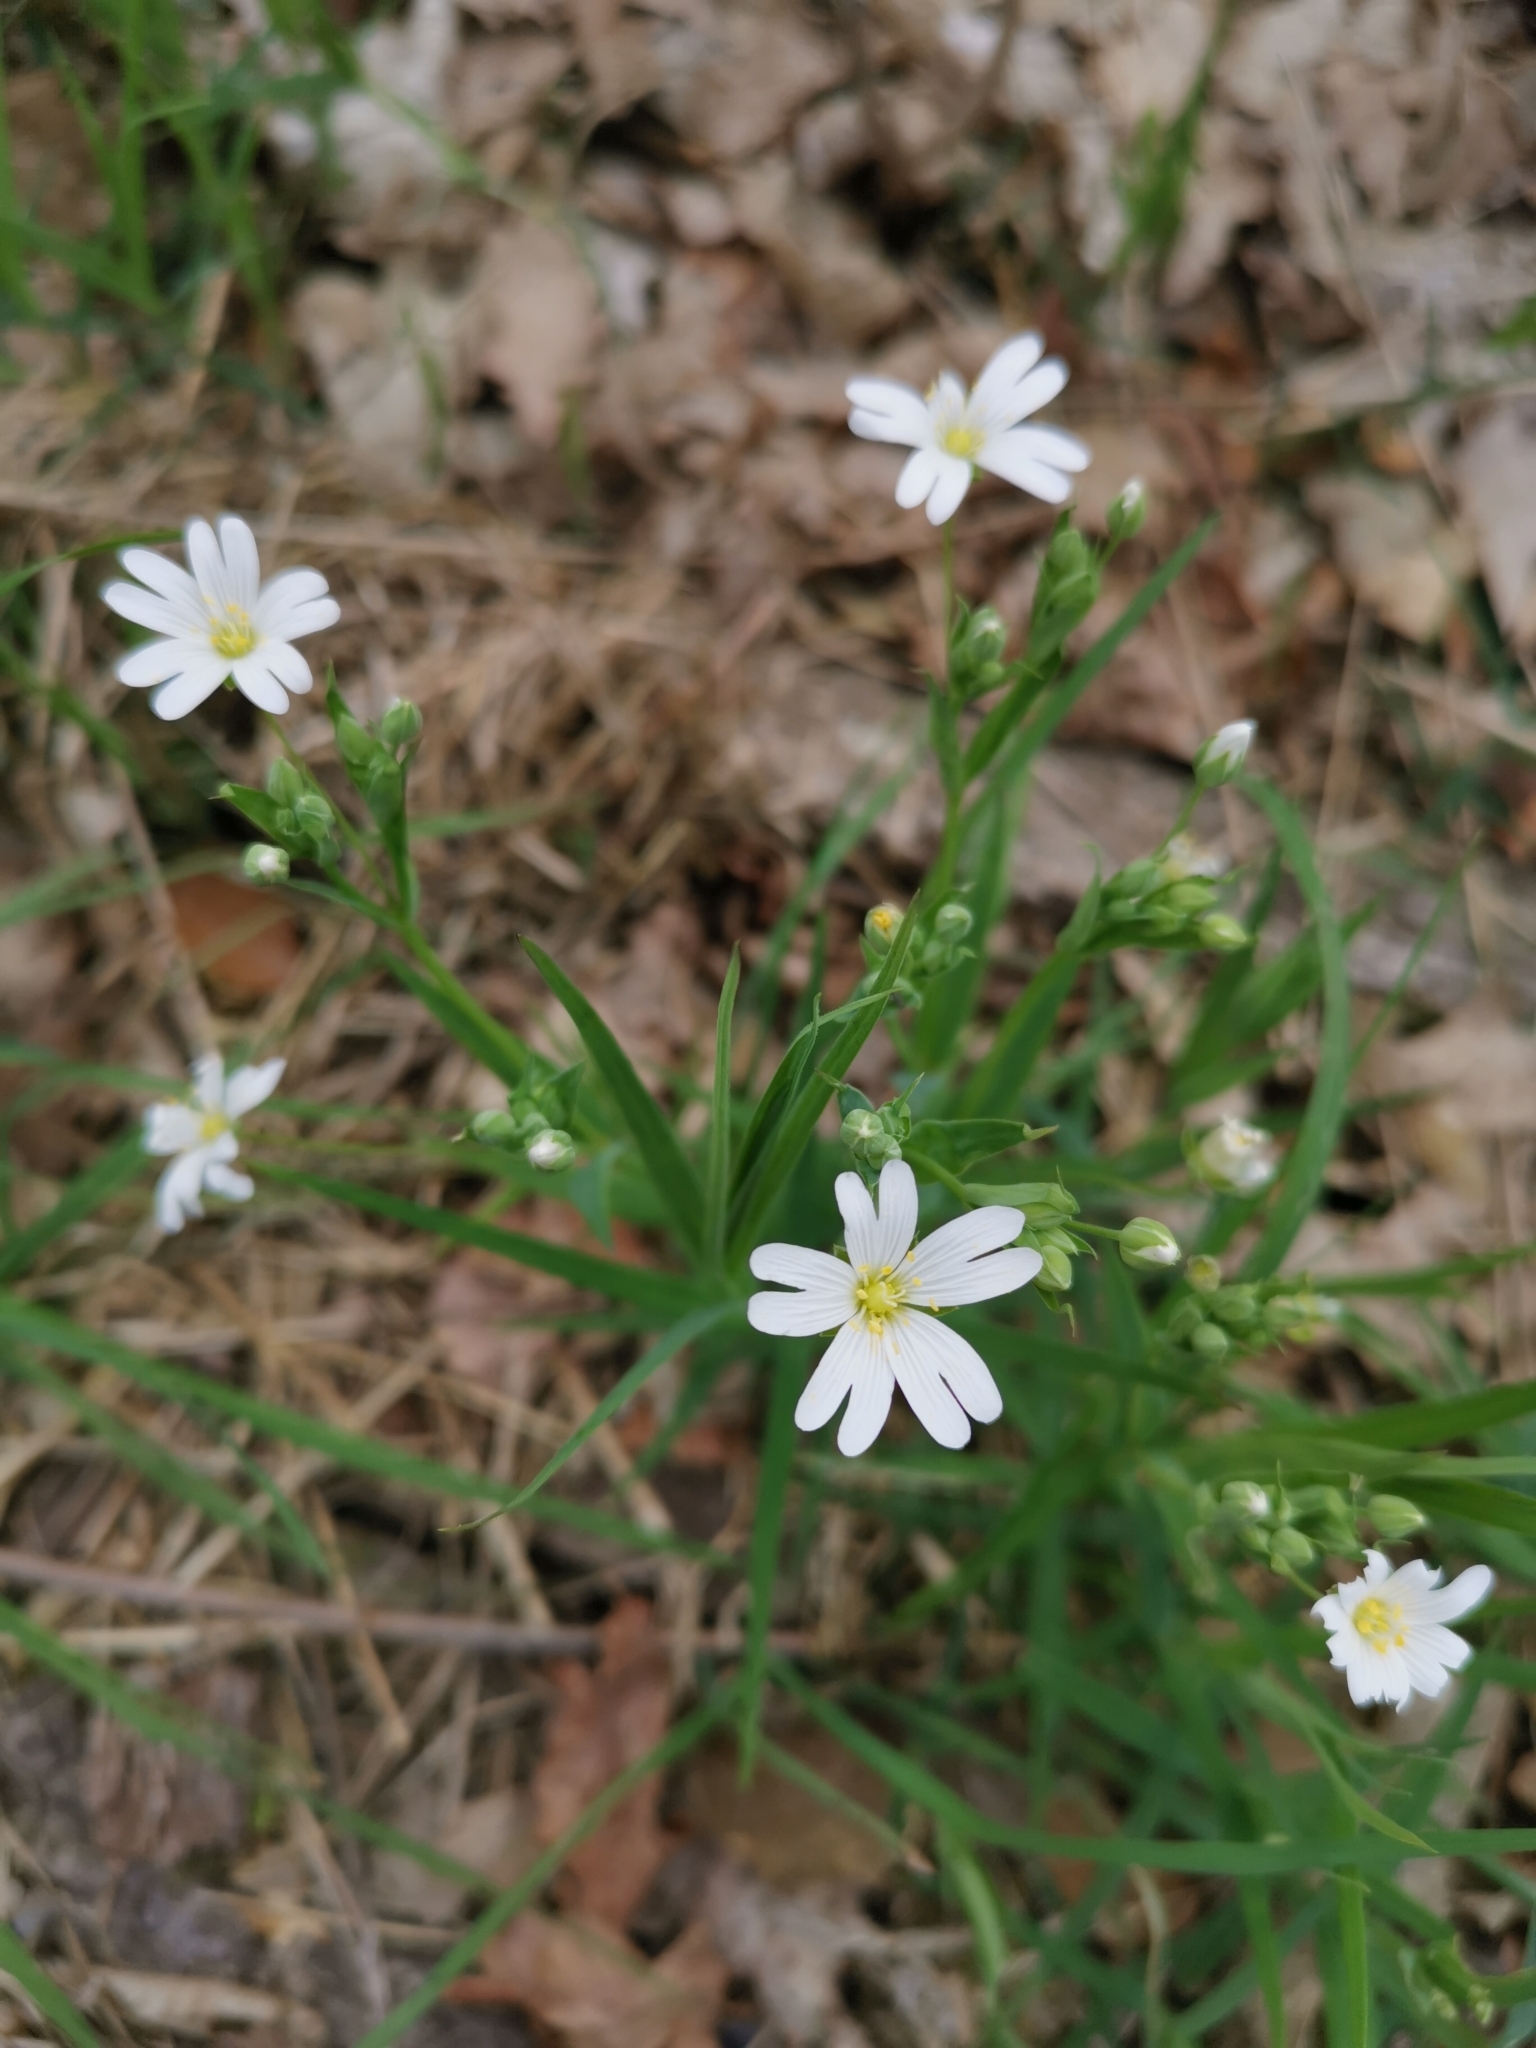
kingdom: Plantae
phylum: Tracheophyta
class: Magnoliopsida
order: Caryophyllales
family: Caryophyllaceae
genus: Rabelera
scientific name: Rabelera holostea
